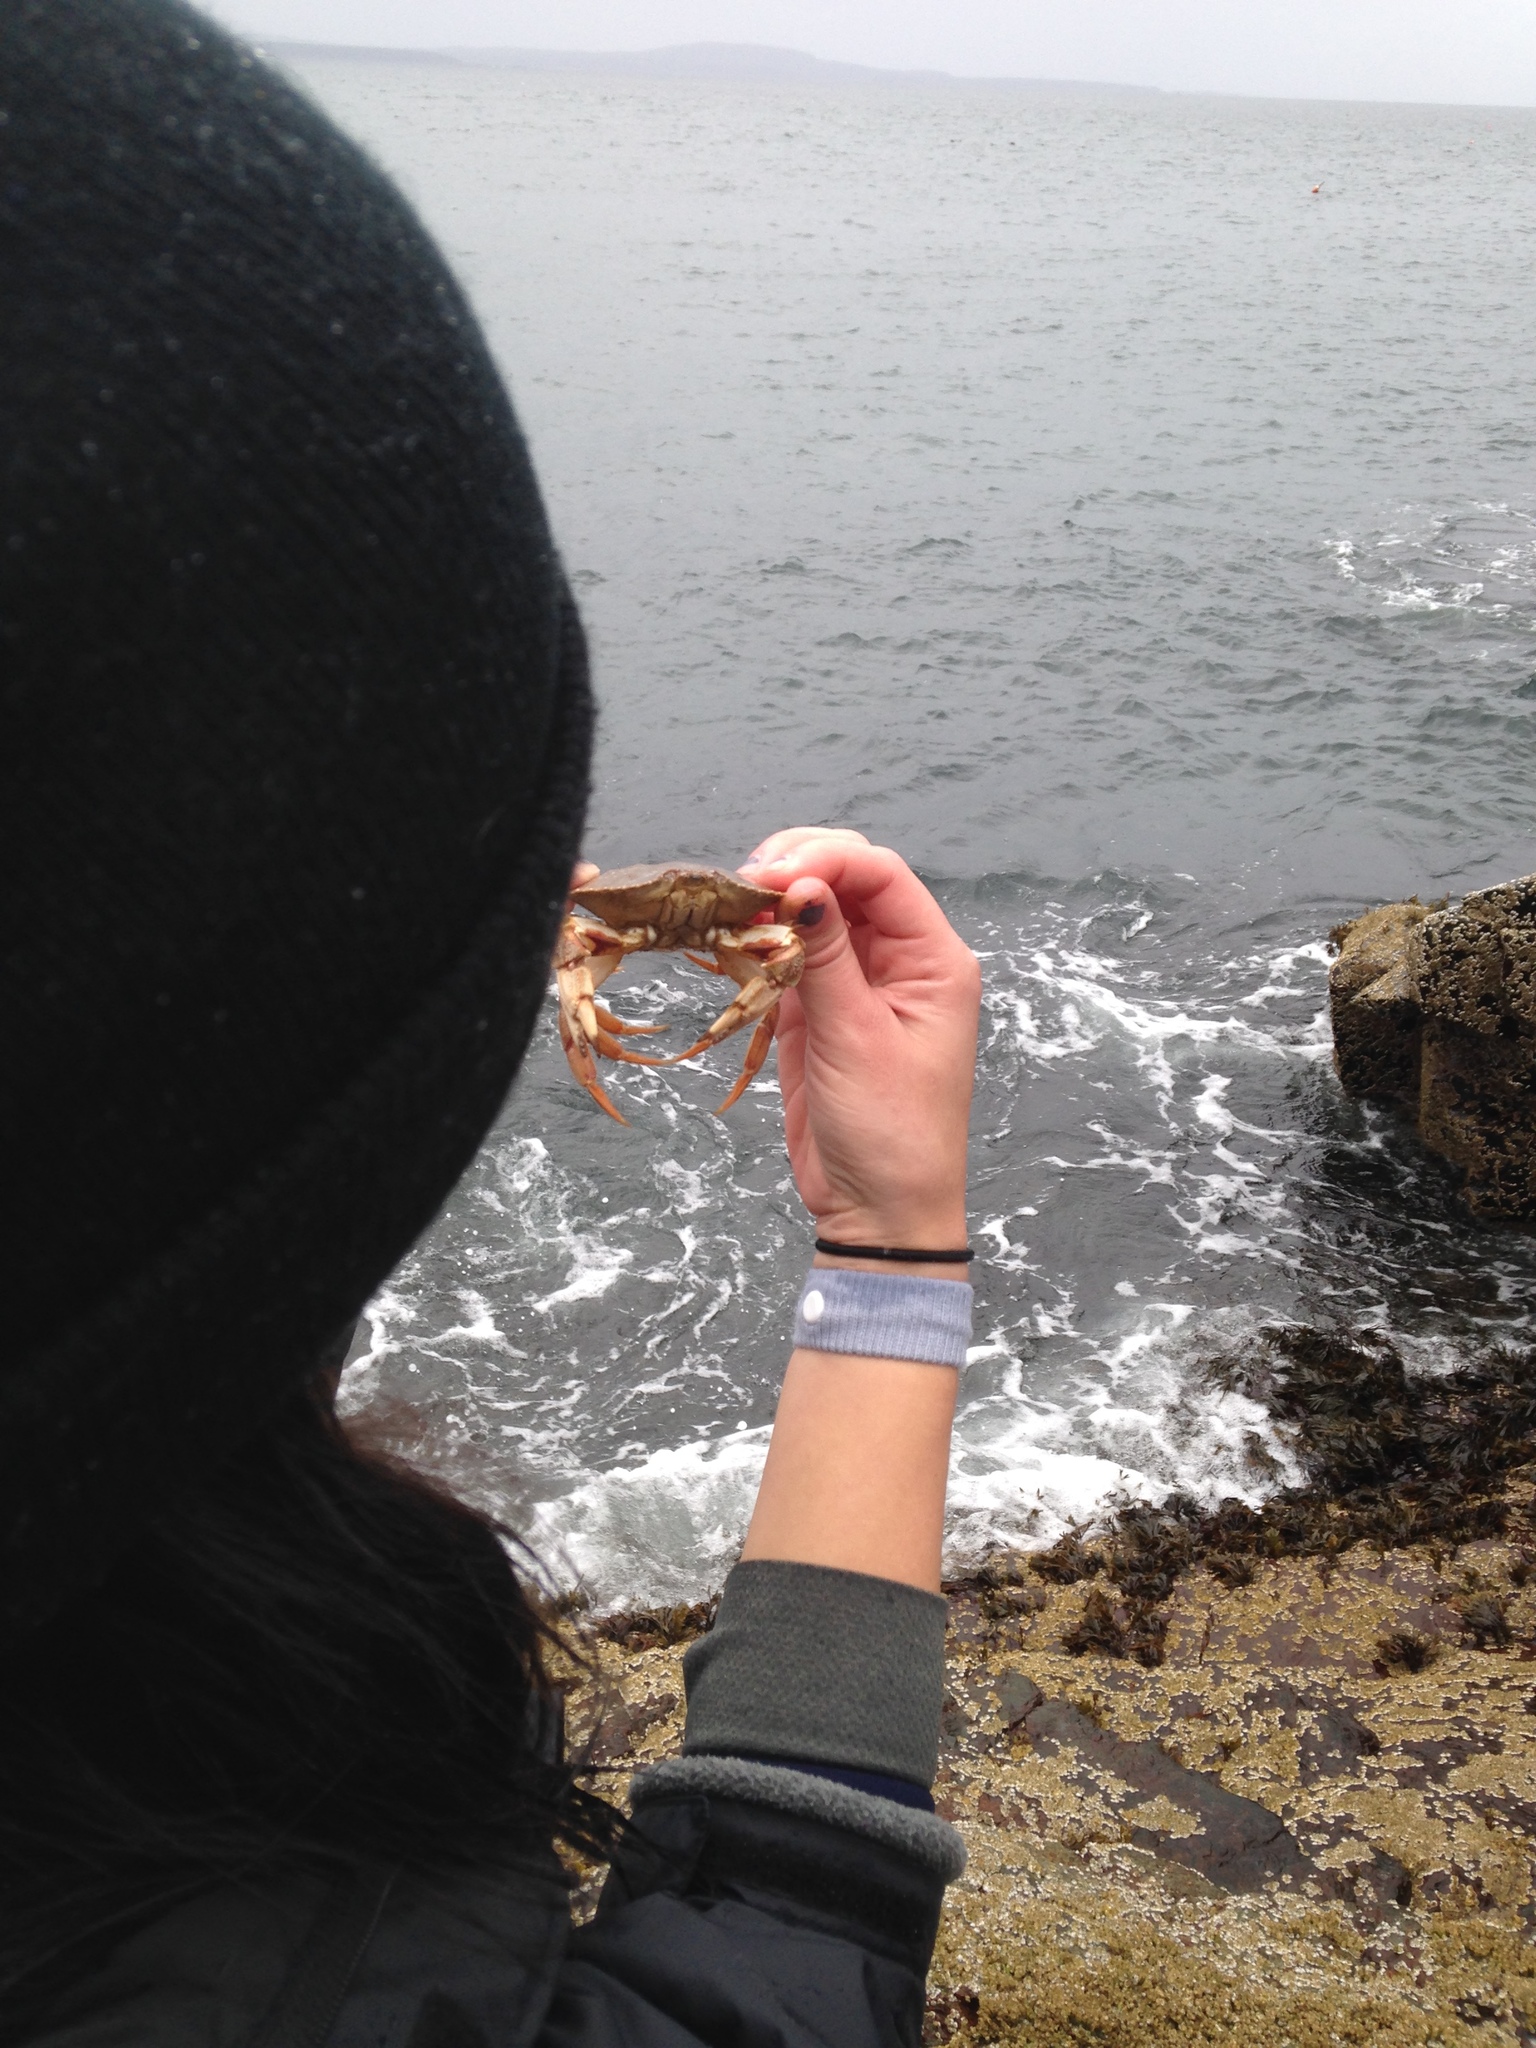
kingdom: Animalia
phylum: Arthropoda
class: Malacostraca
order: Decapoda
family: Cancridae
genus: Cancer
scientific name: Cancer irroratus
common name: Atlantic rock crab
